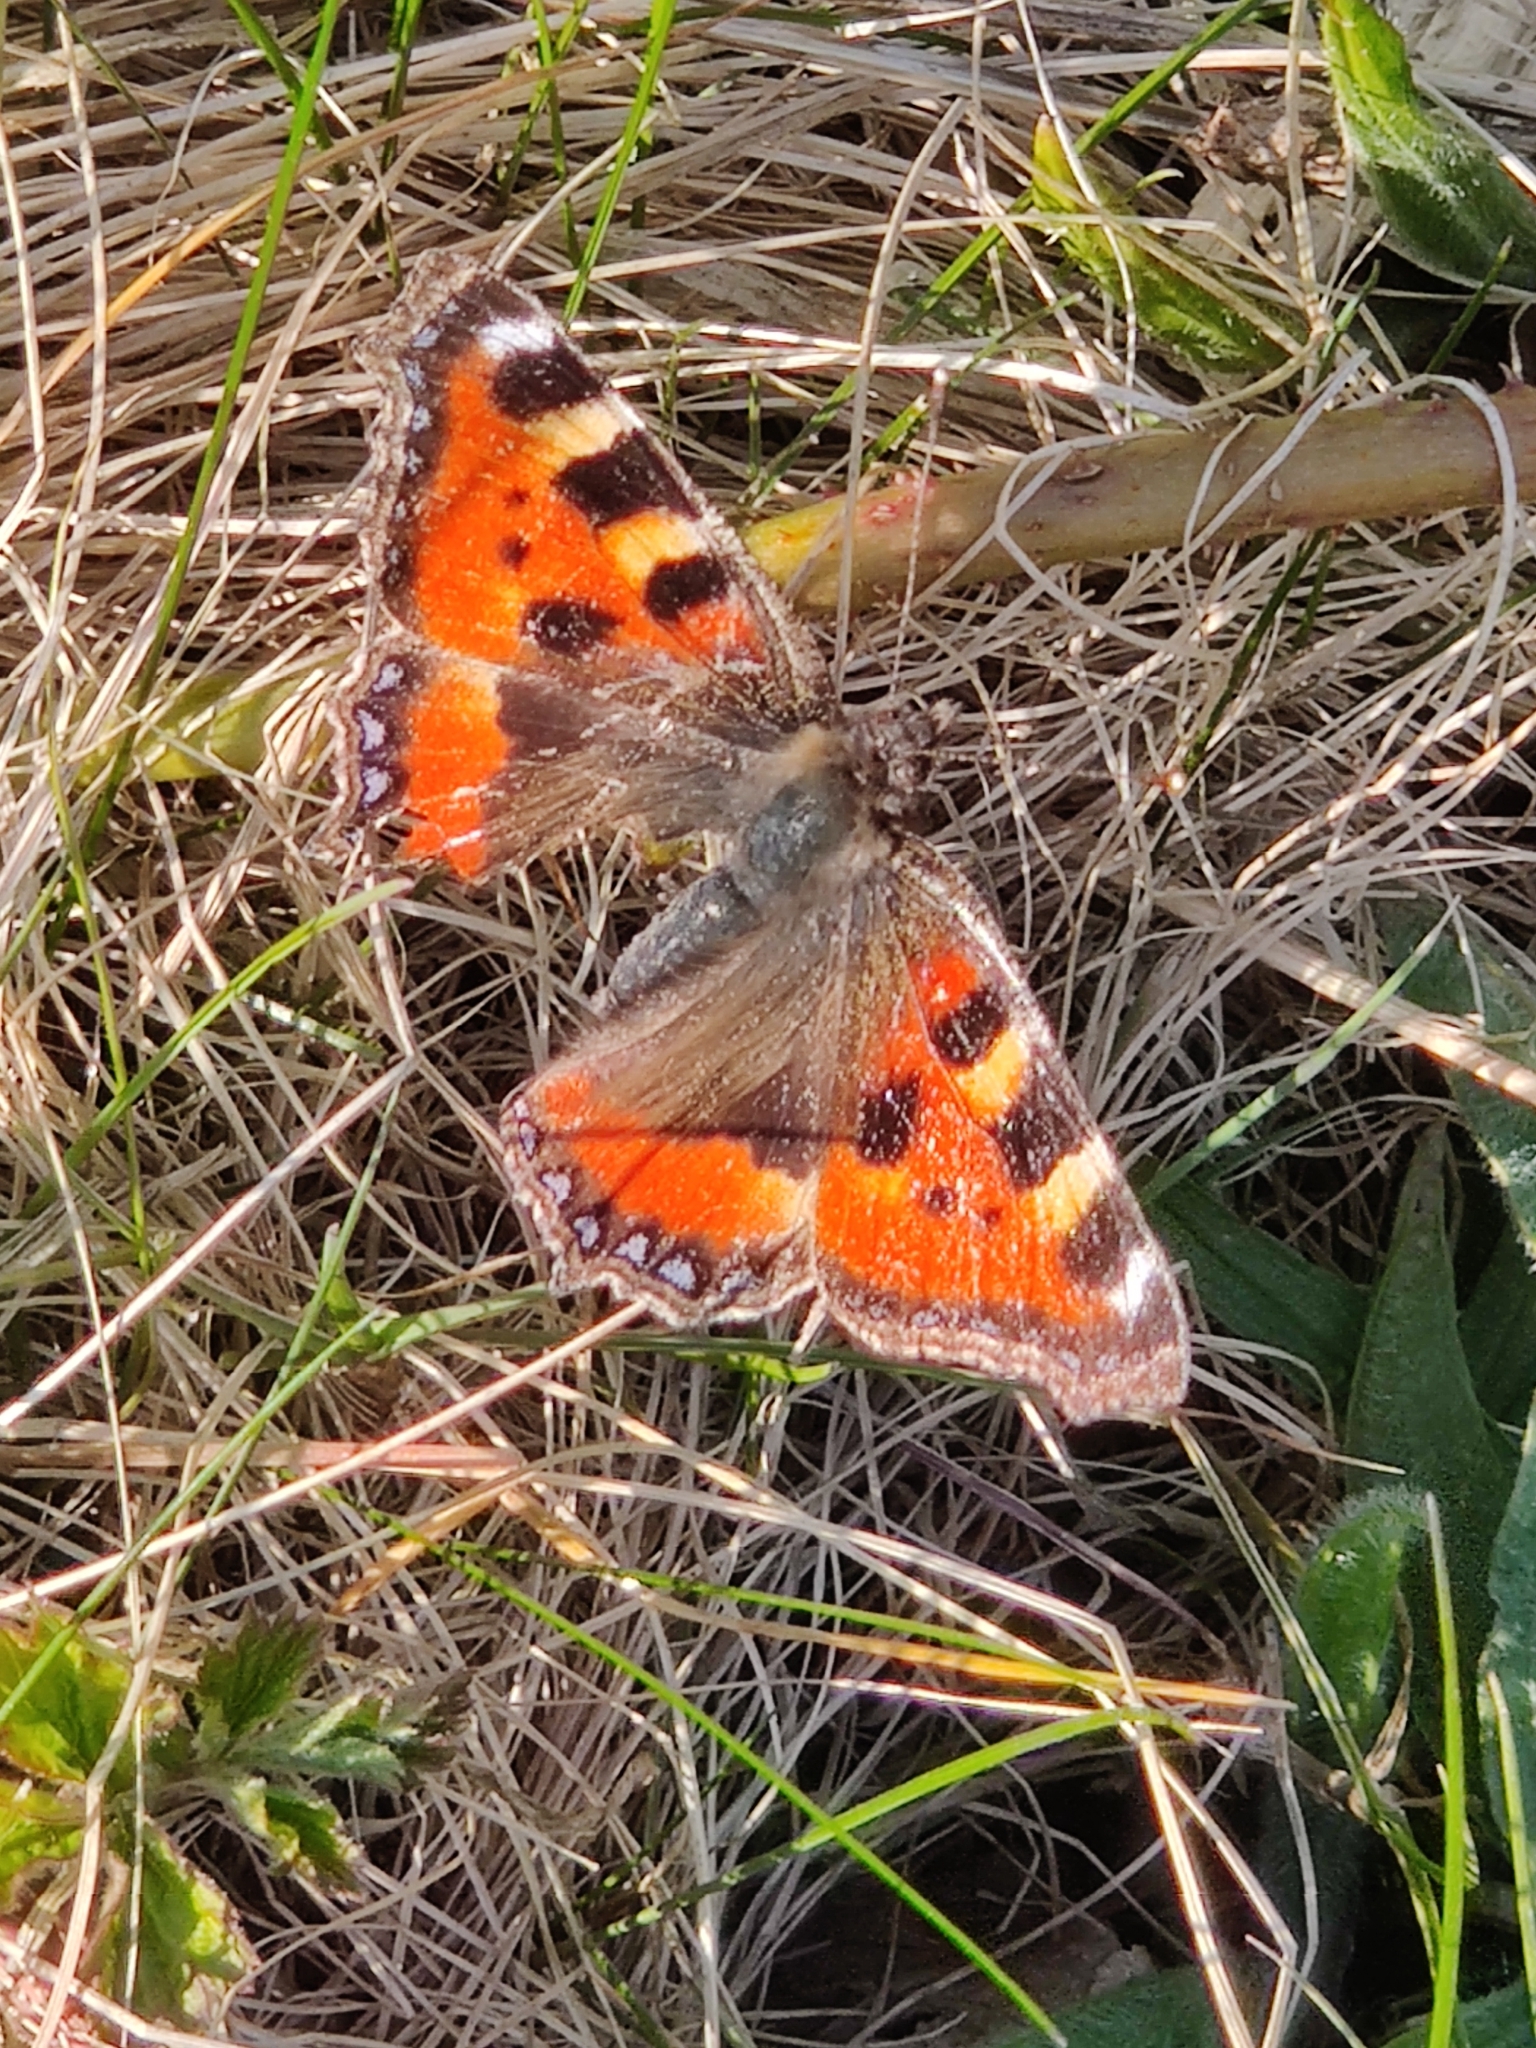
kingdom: Animalia
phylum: Arthropoda
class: Insecta
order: Lepidoptera
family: Nymphalidae
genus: Aglais
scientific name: Aglais urticae
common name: Small tortoiseshell
